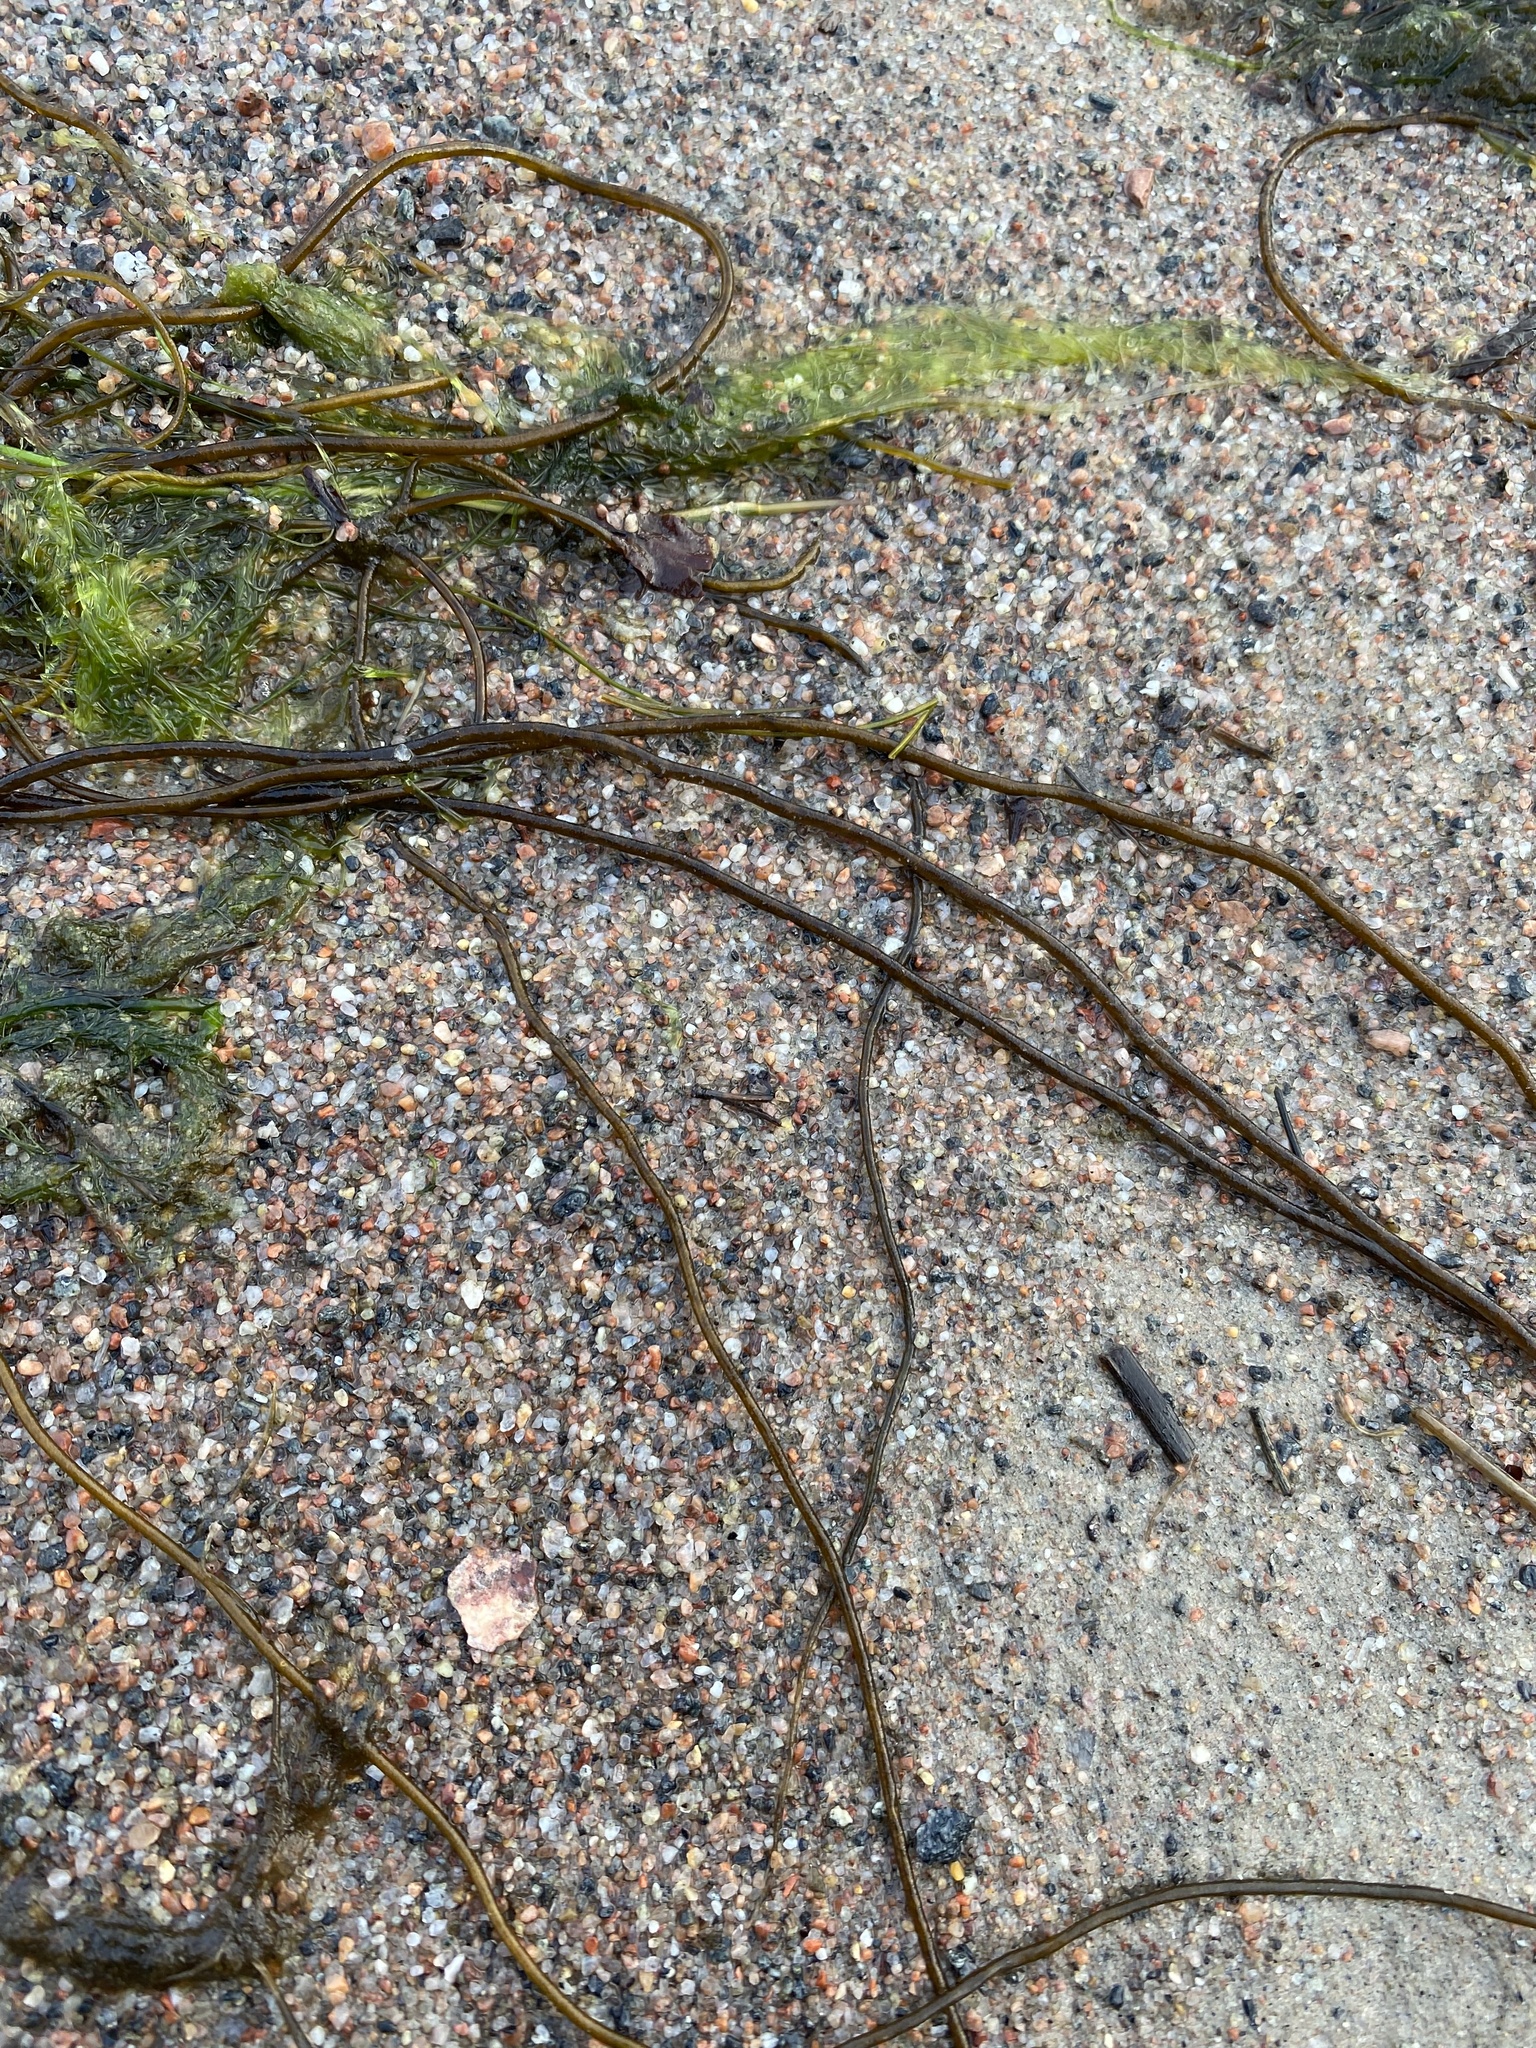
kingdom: Chromista
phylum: Ochrophyta
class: Phaeophyceae
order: Laminariales
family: Chordaceae
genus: Chorda
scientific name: Chorda filum
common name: Mermaid's tresses
